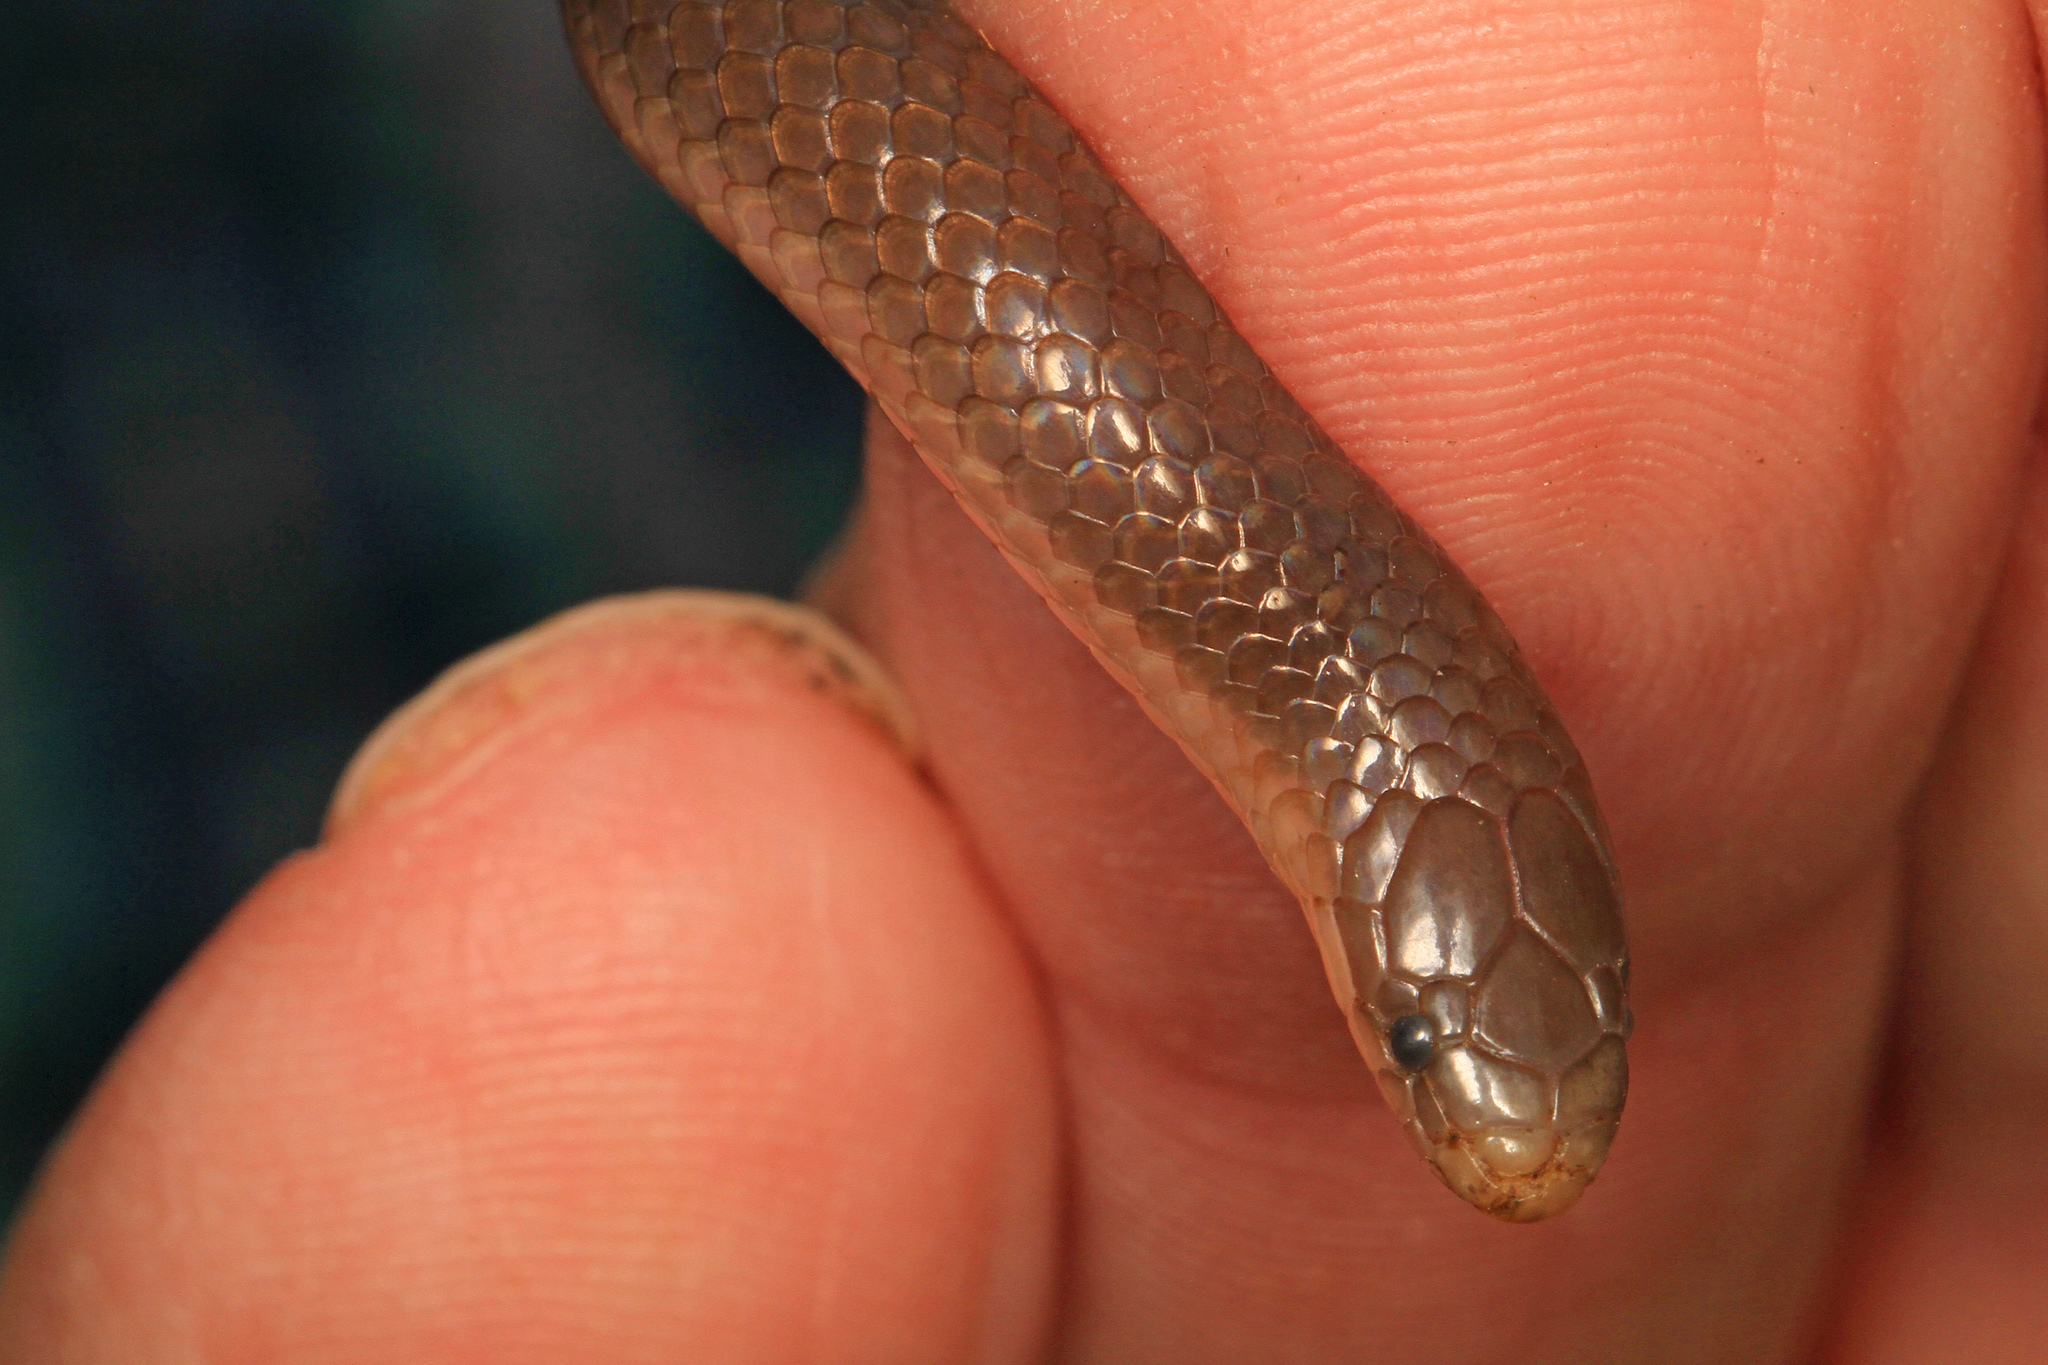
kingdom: Animalia
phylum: Chordata
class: Squamata
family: Colubridae
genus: Carphophis
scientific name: Carphophis amoenus
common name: Eastern worm snake
